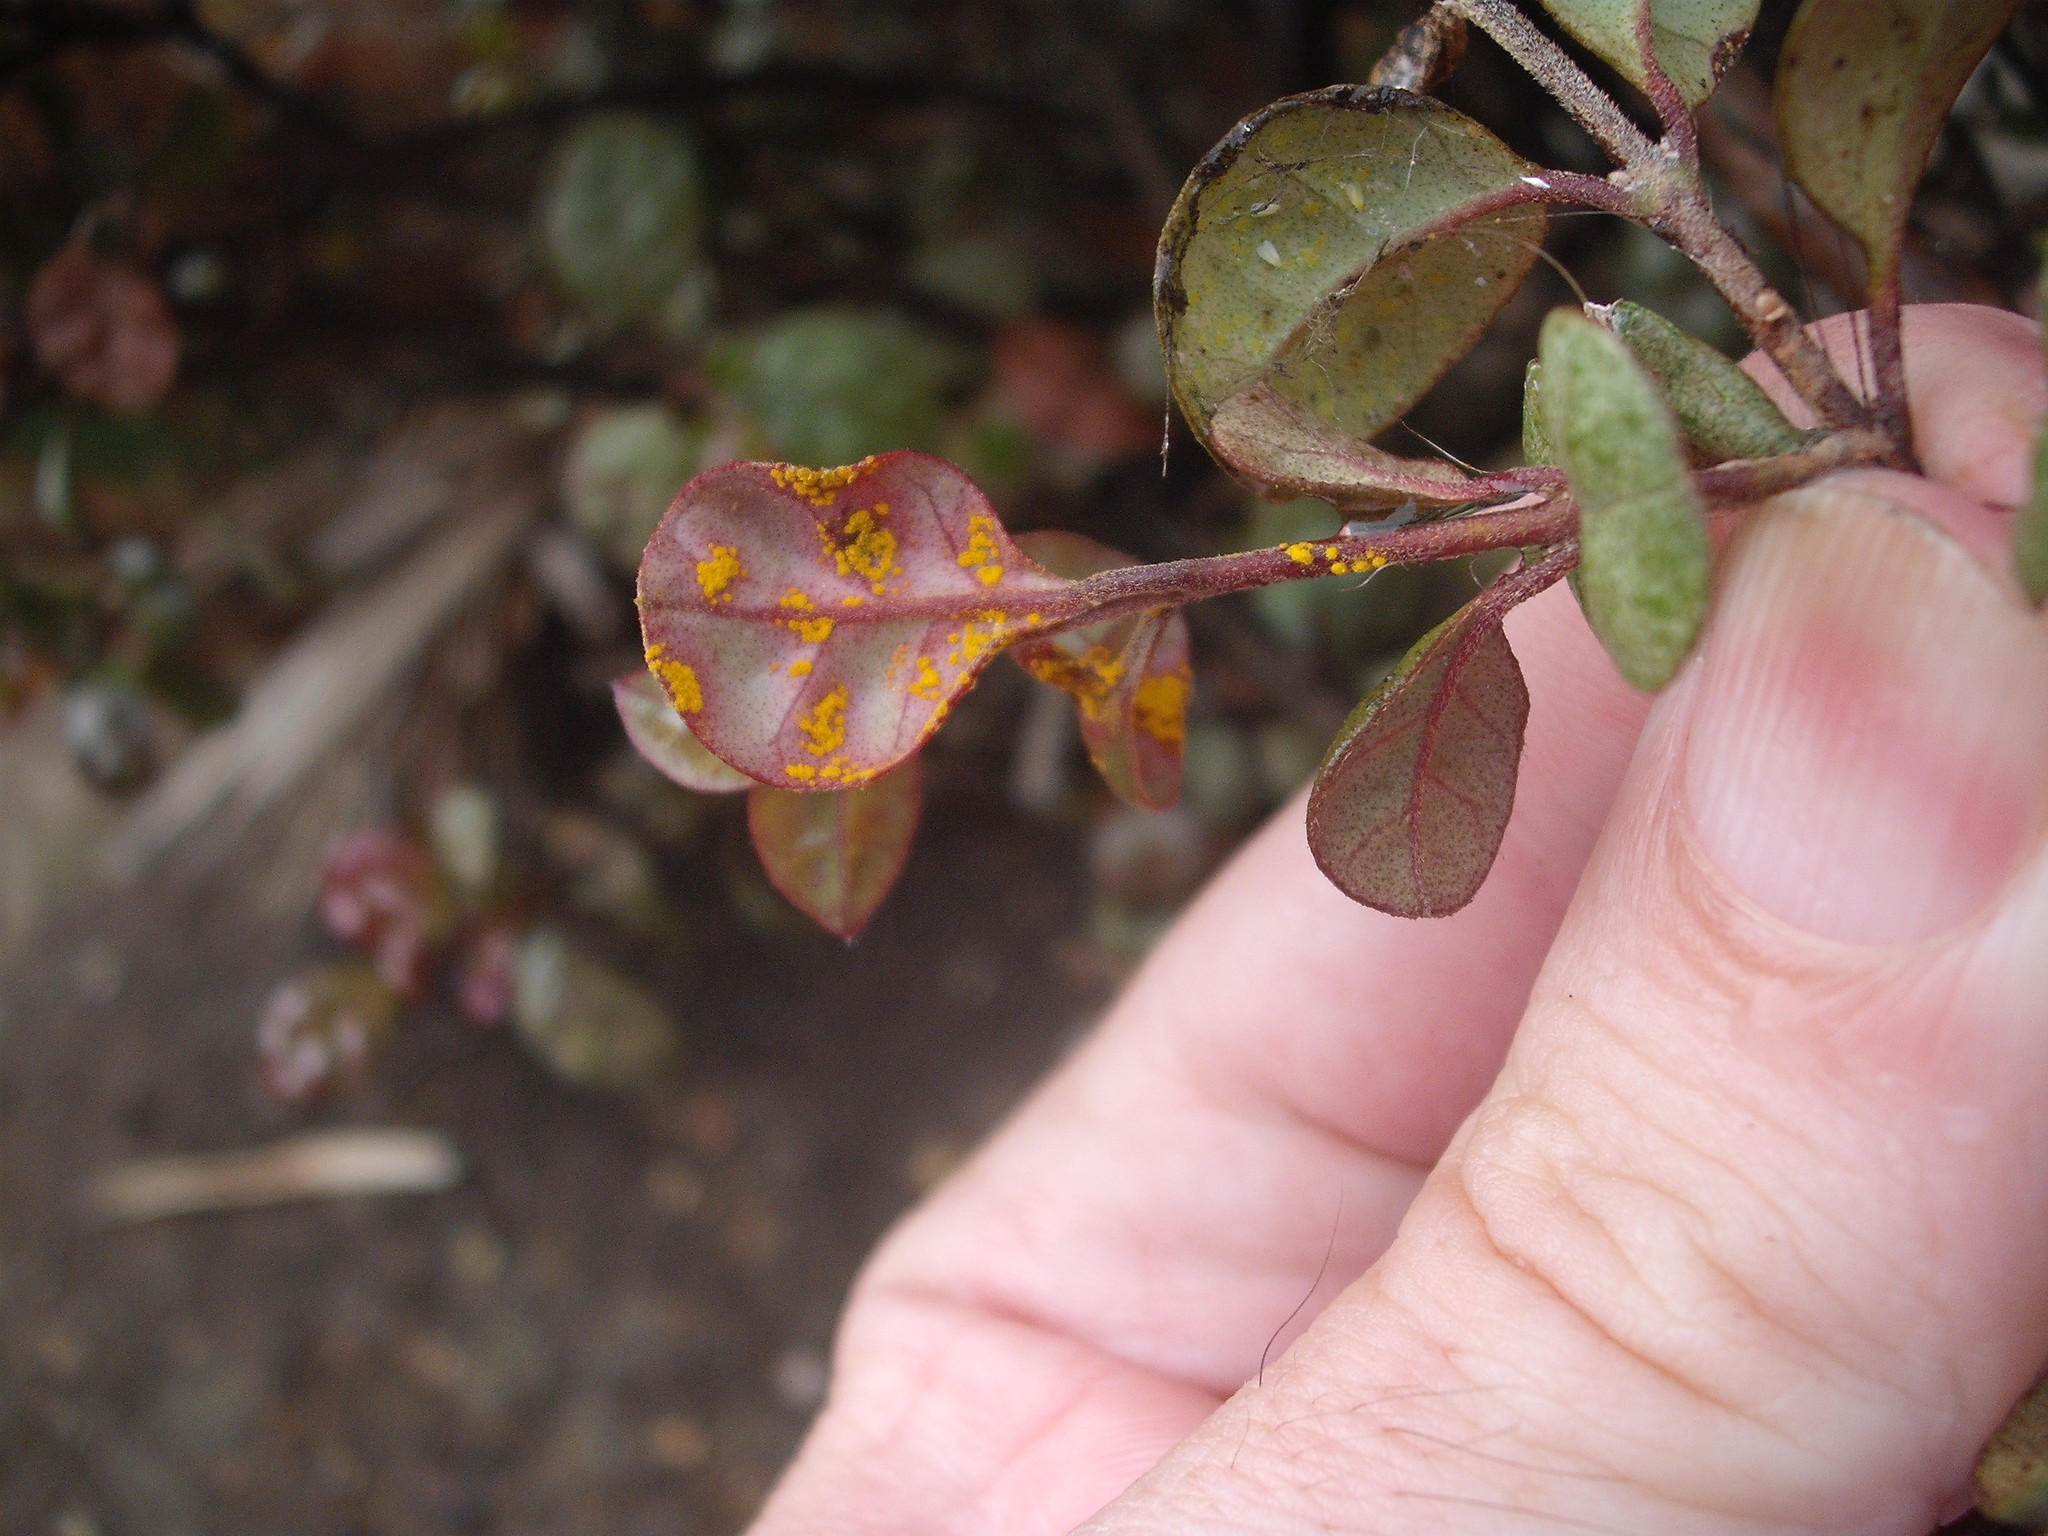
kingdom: Fungi
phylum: Basidiomycota
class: Pucciniomycetes
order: Pucciniales
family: Sphaerophragmiaceae
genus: Austropuccinia
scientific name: Austropuccinia psidii
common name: Myrtle rust
